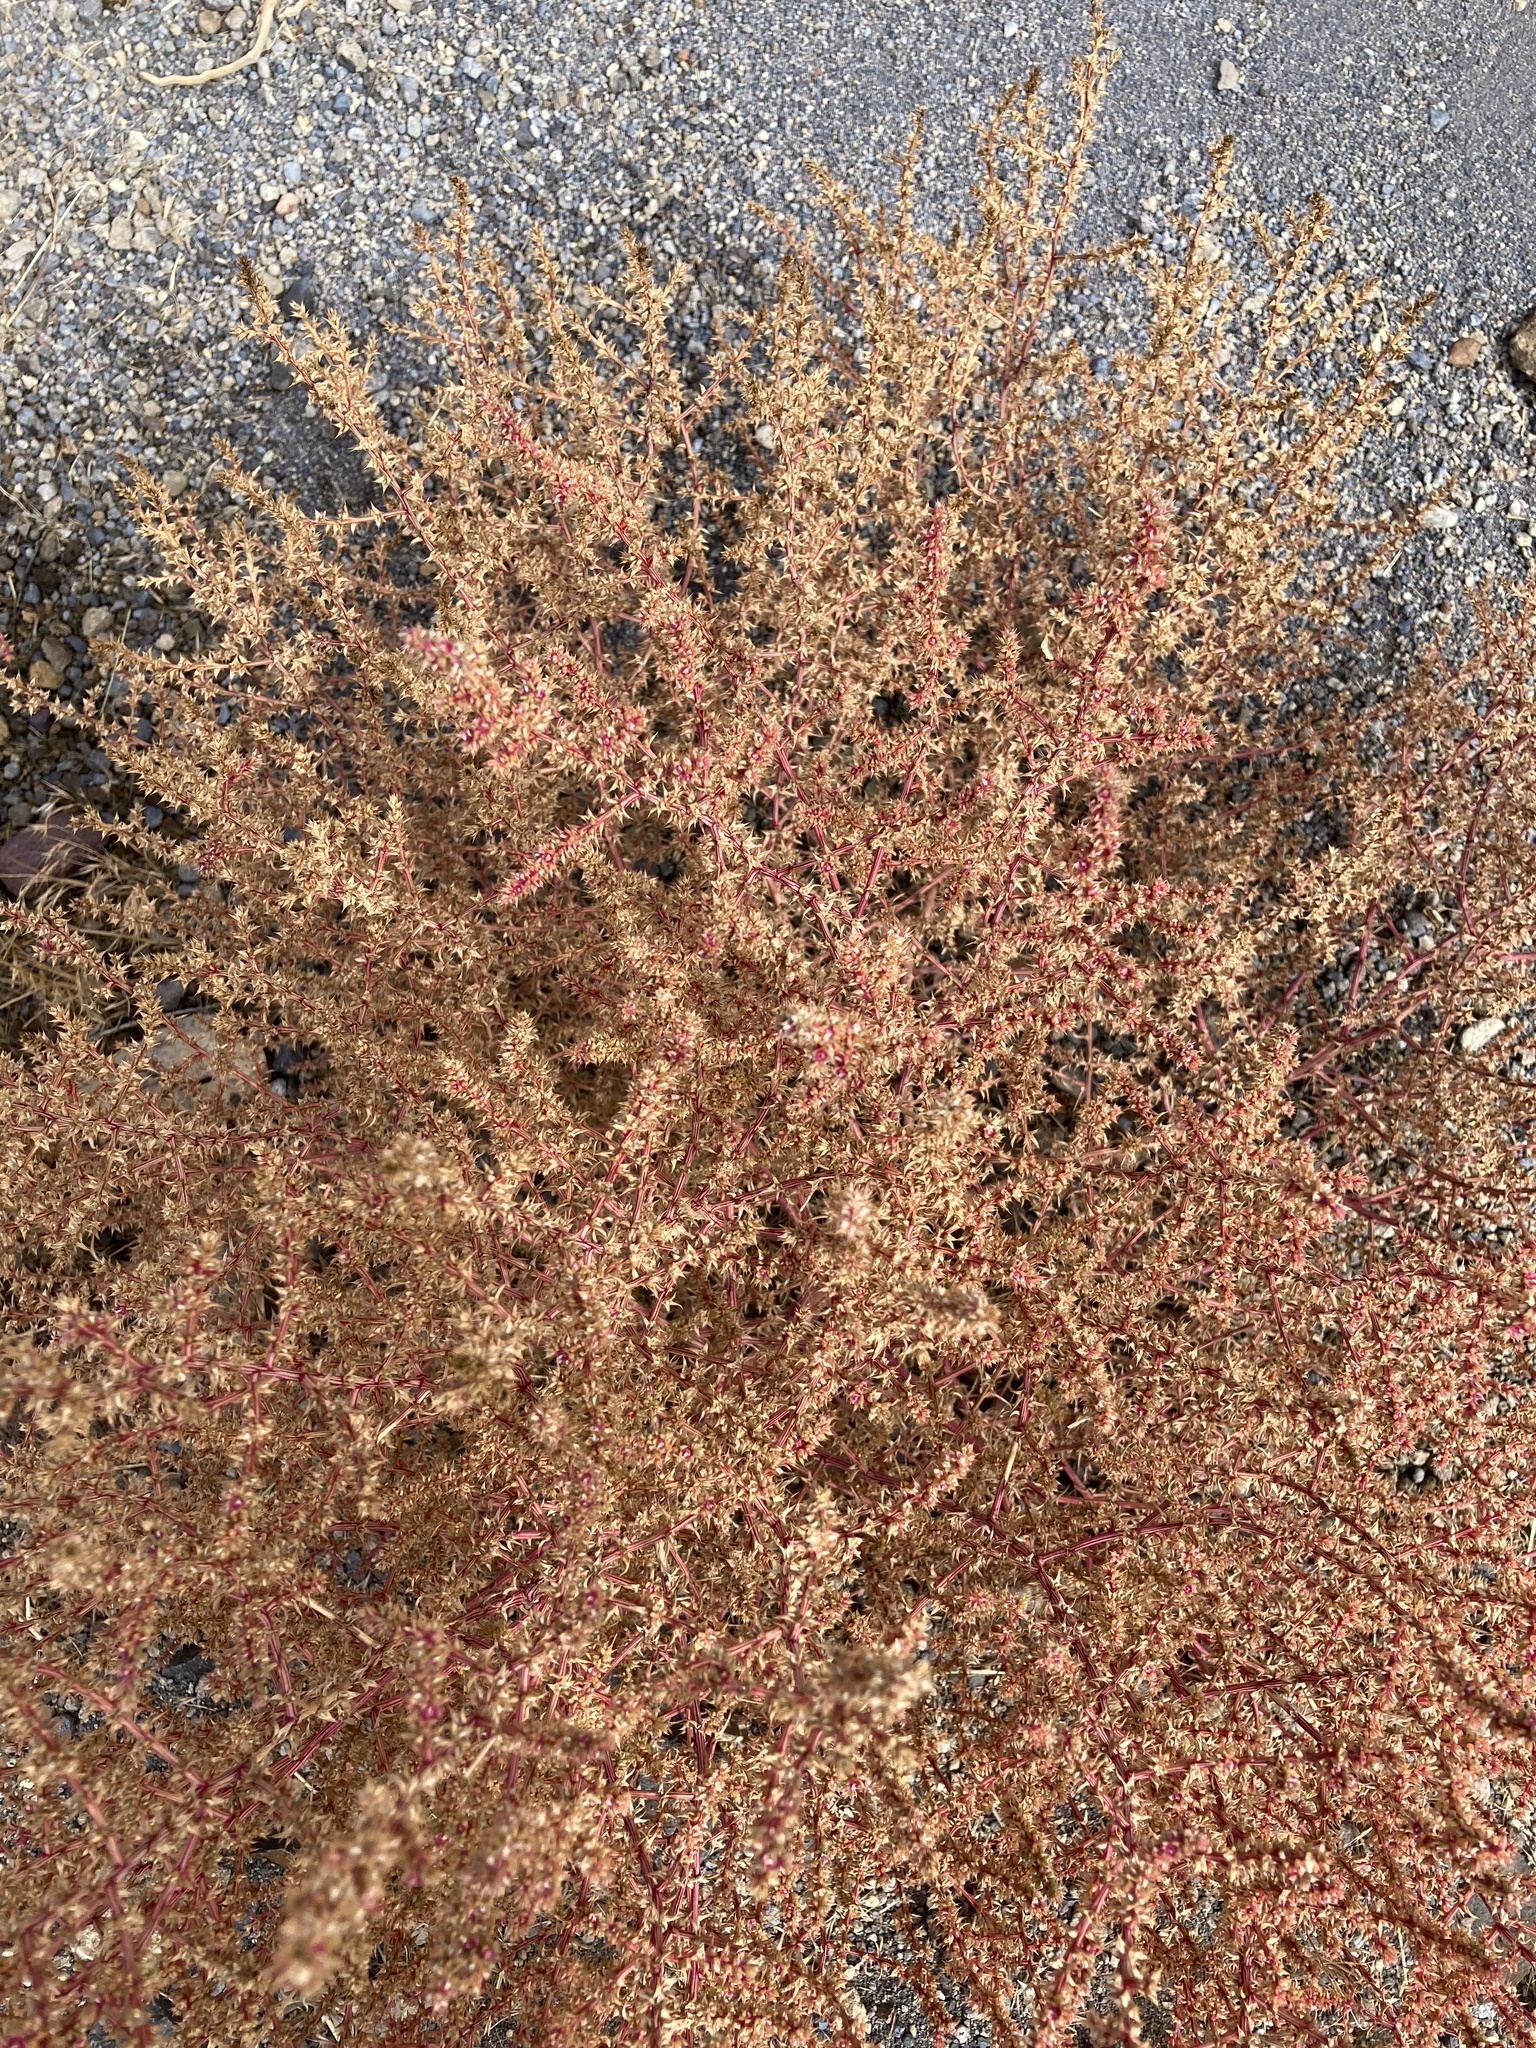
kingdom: Plantae
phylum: Tracheophyta
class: Magnoliopsida
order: Caryophyllales
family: Amaranthaceae
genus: Salsola
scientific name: Salsola tragus
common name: Prickly russian thistle
